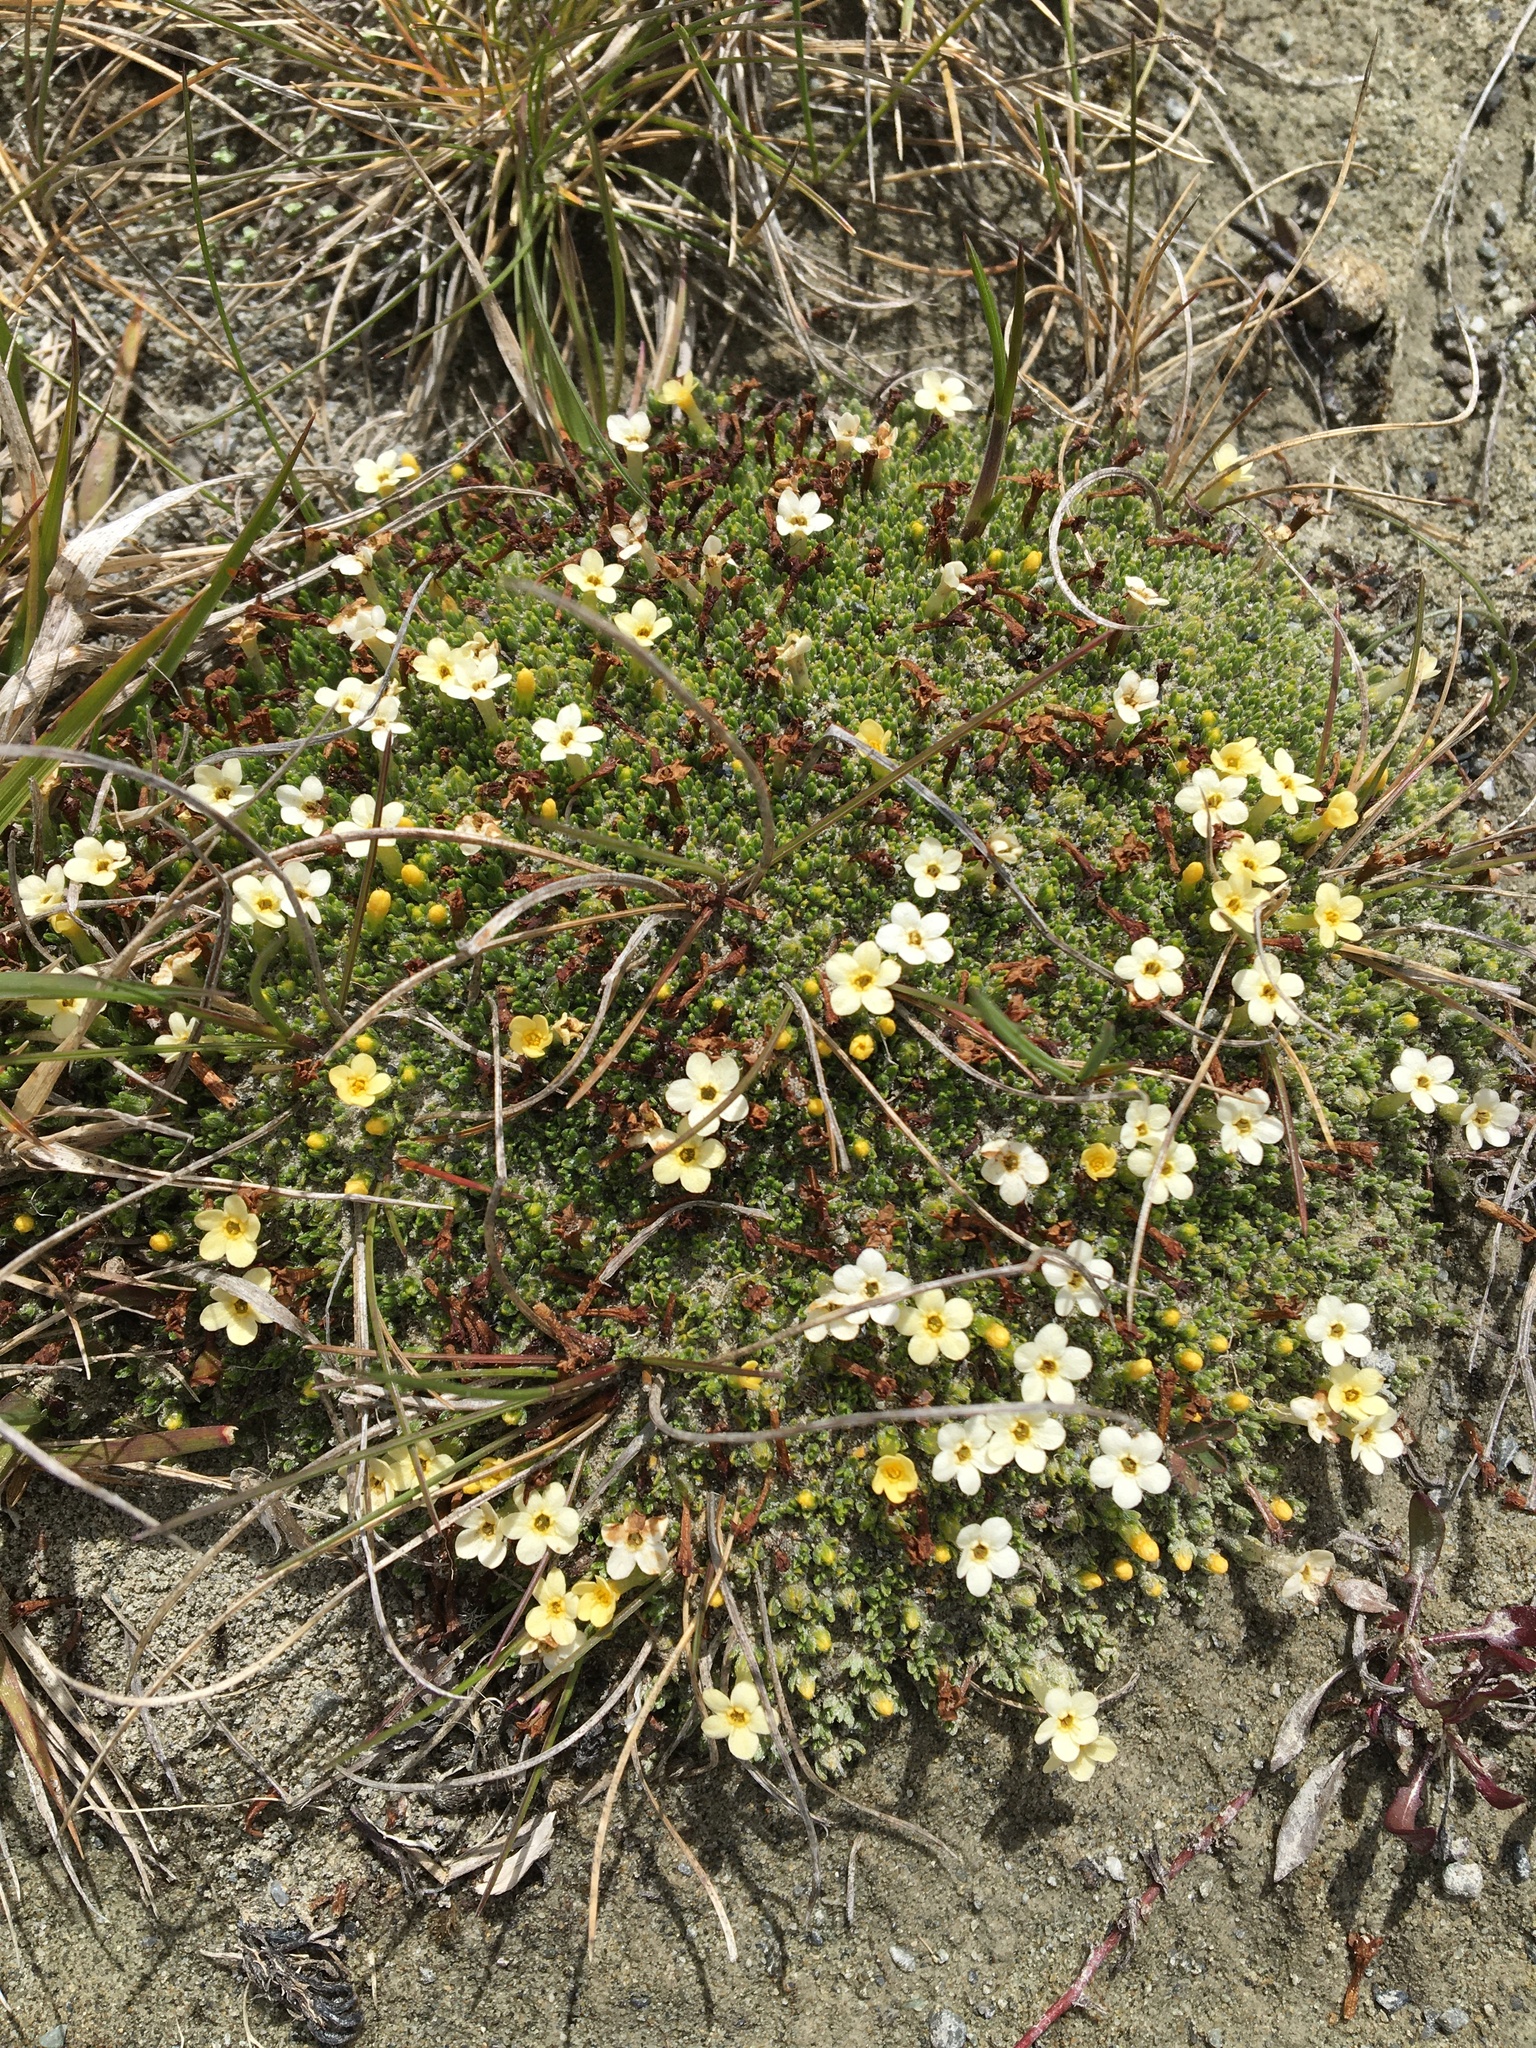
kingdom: Plantae
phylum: Tracheophyta
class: Magnoliopsida
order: Boraginales
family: Boraginaceae
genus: Myosotis
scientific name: Myosotis uniflora
